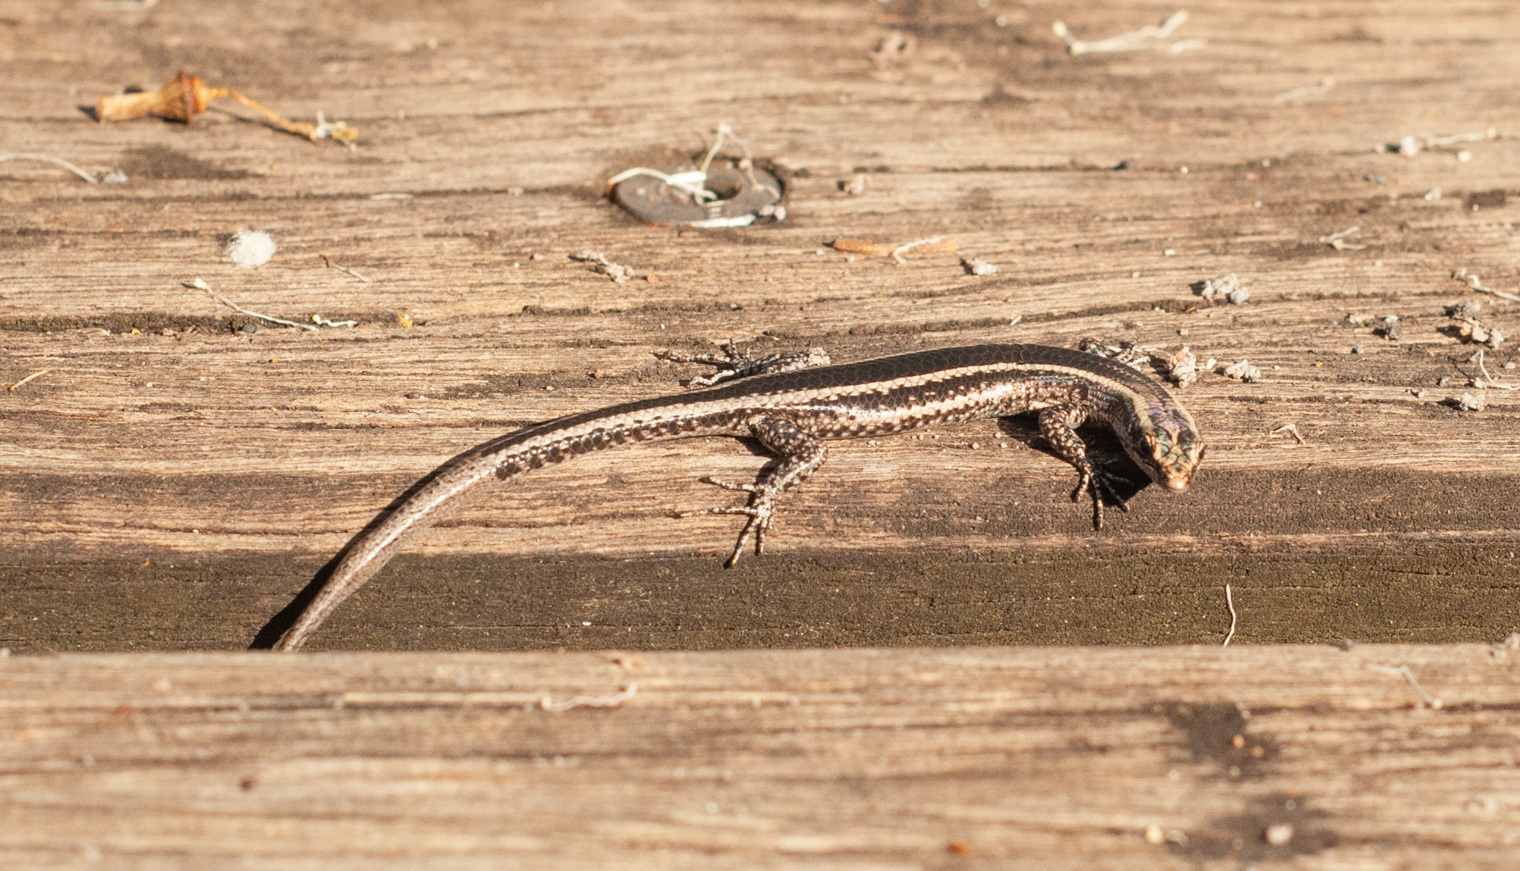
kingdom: Animalia
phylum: Chordata
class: Squamata
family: Scincidae
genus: Cryptoblepharus
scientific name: Cryptoblepharus pulcher
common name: Elegant snake-eyed skink
